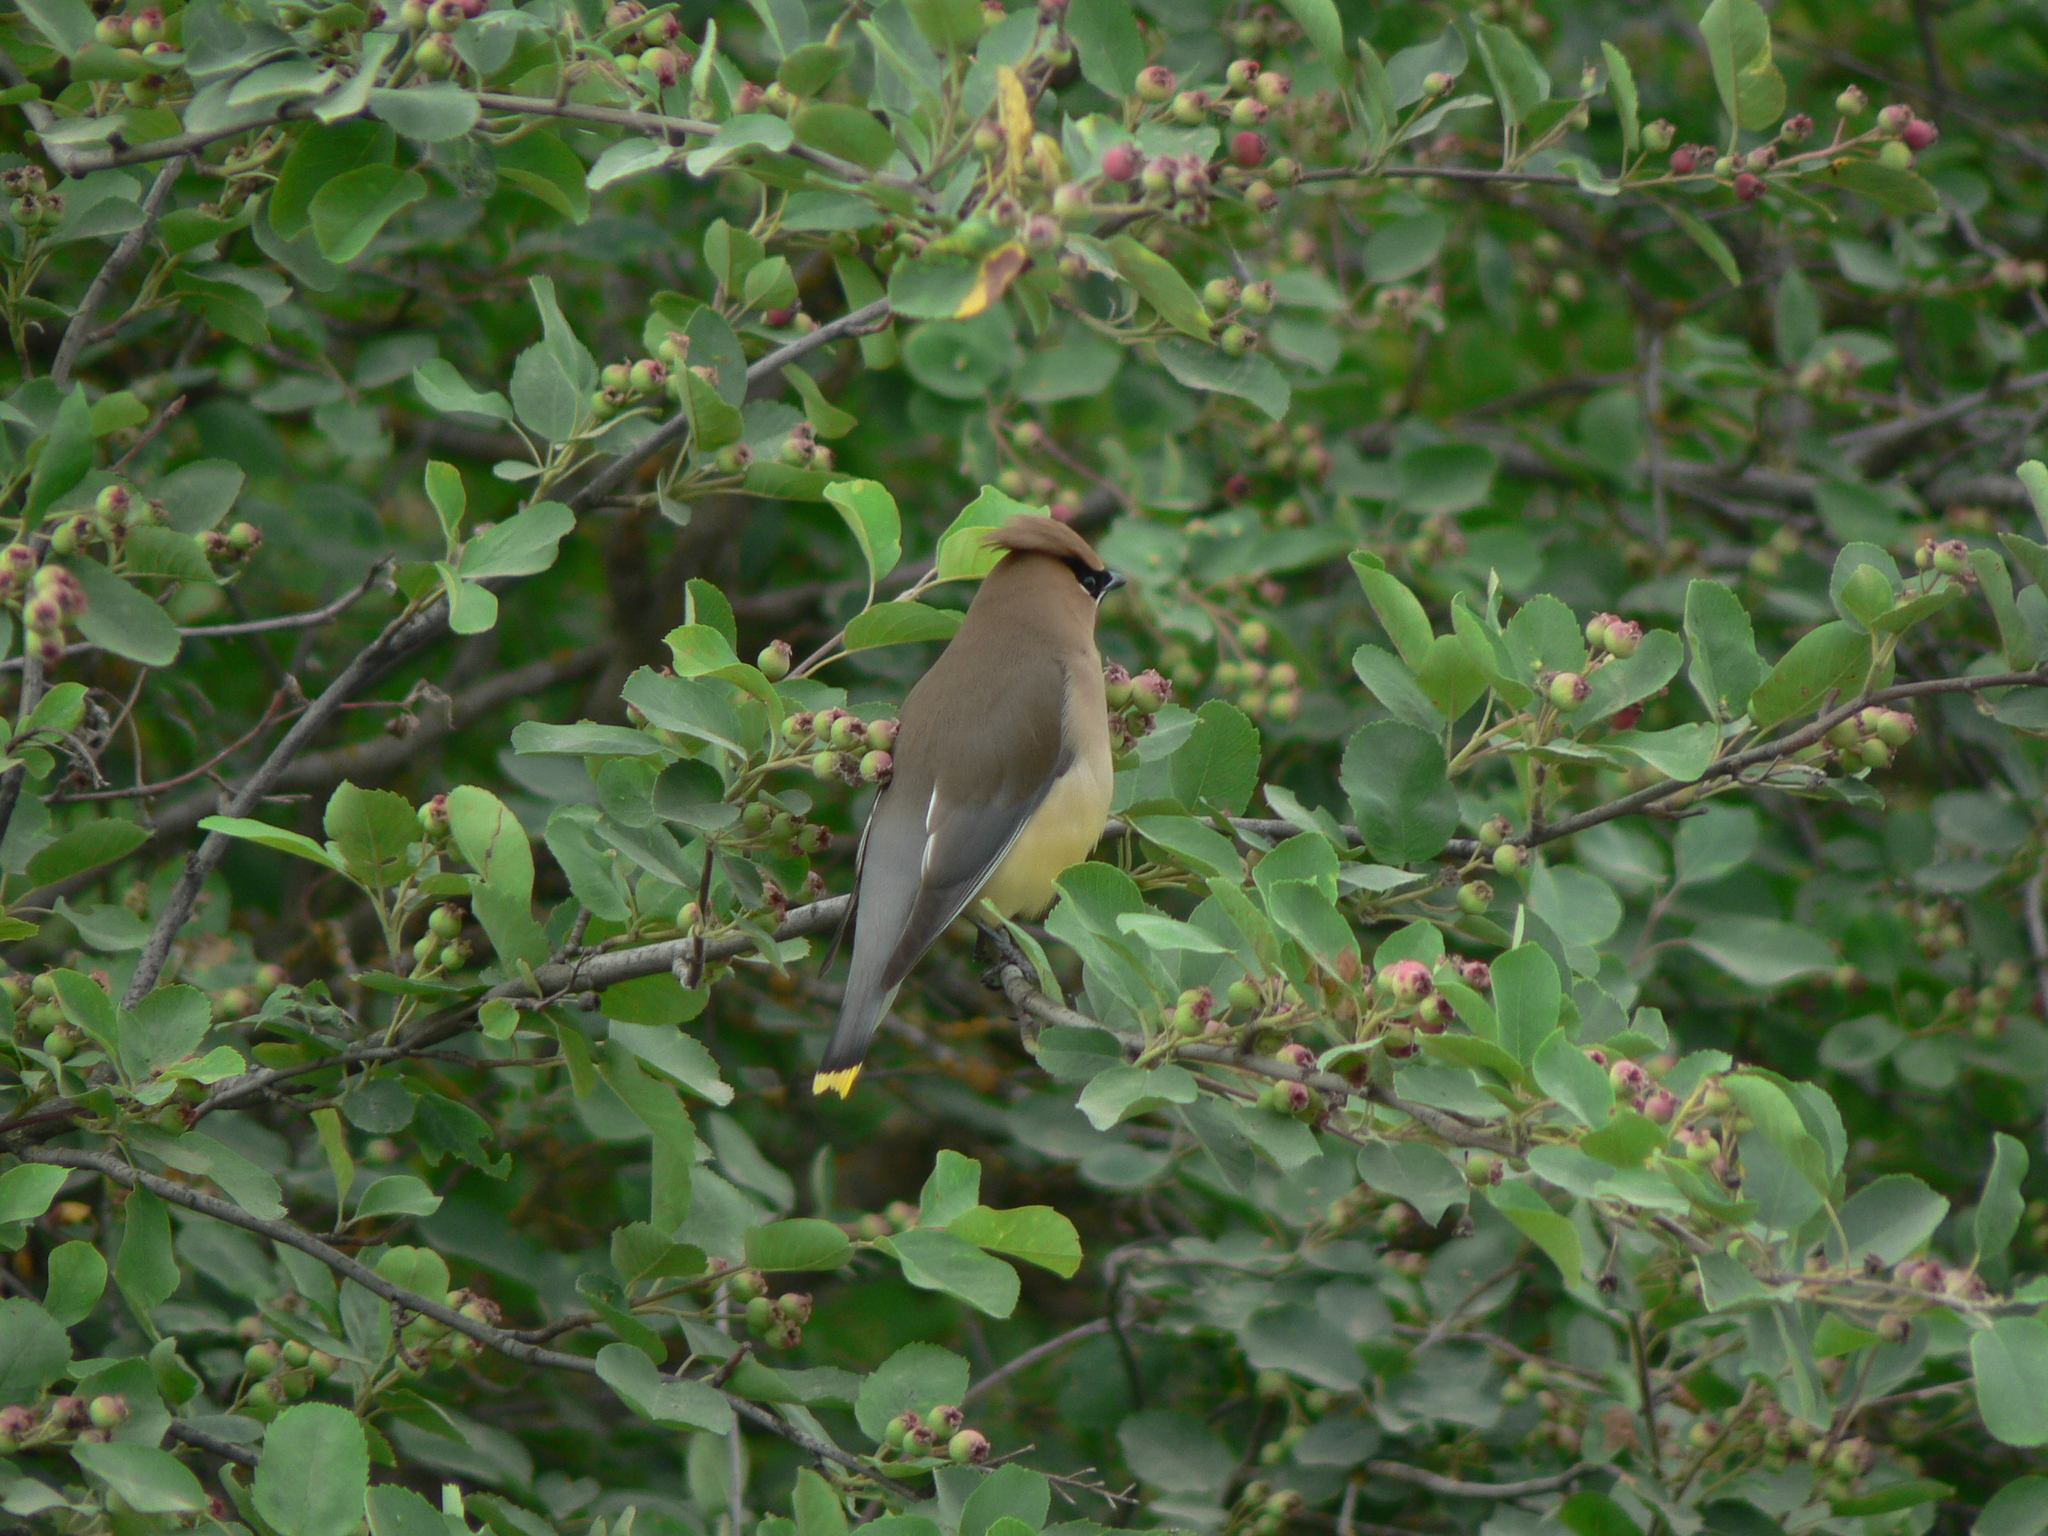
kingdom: Animalia
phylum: Chordata
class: Aves
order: Passeriformes
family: Bombycillidae
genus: Bombycilla
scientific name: Bombycilla cedrorum
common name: Cedar waxwing
